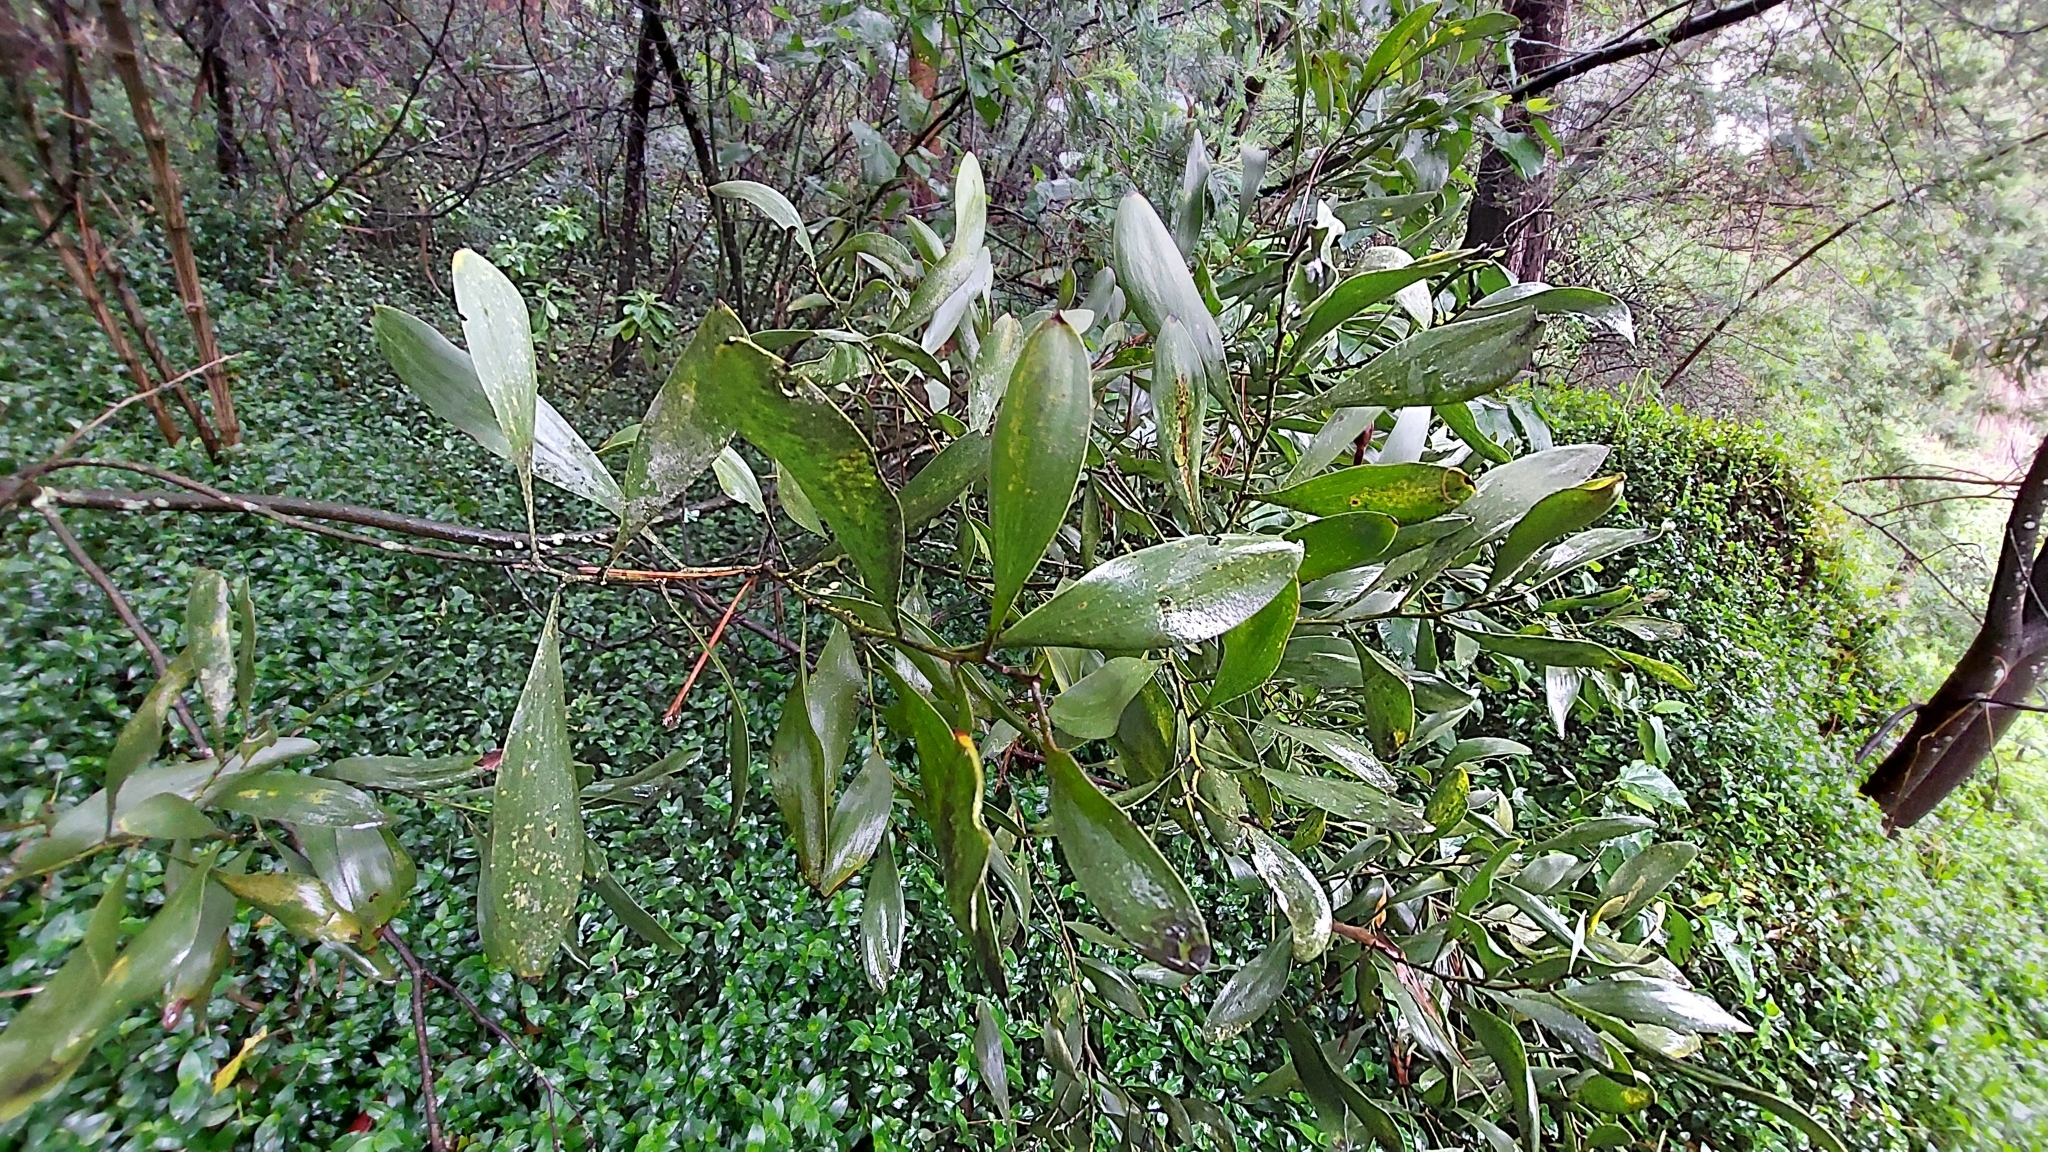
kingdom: Plantae
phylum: Tracheophyta
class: Magnoliopsida
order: Fabales
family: Fabaceae
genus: Acacia
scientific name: Acacia melanoxylon
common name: Blackwood
